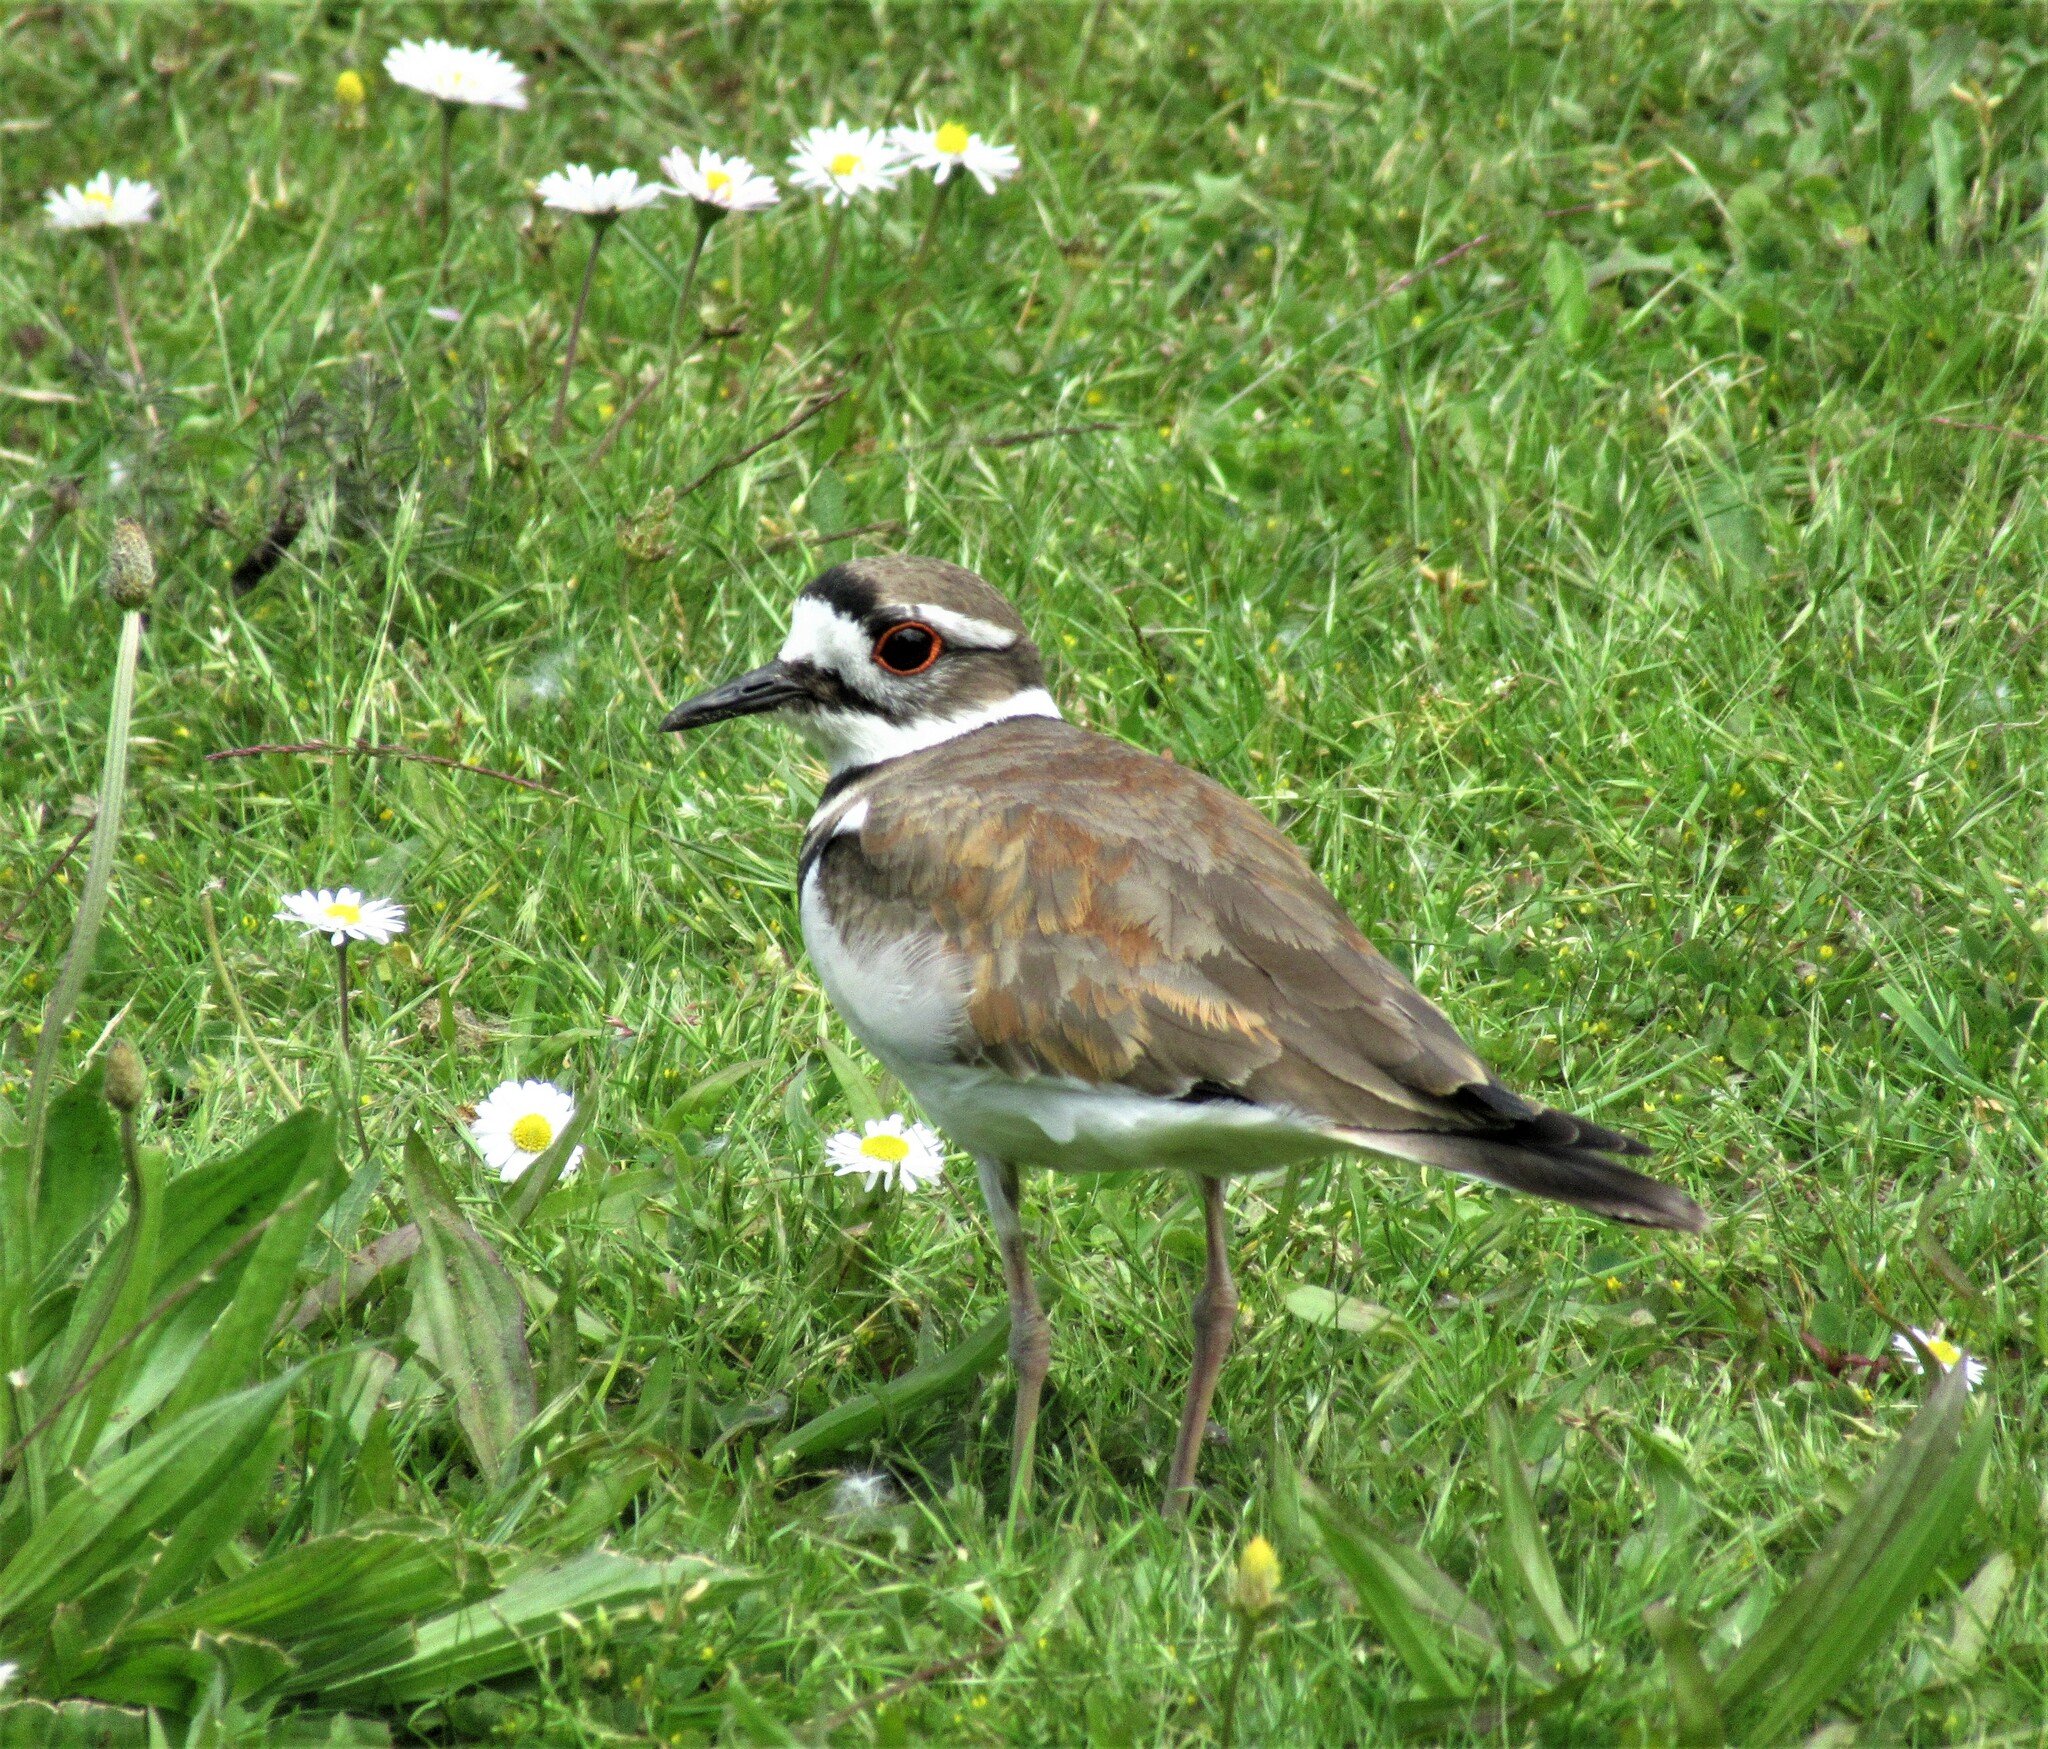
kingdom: Animalia
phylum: Chordata
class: Aves
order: Charadriiformes
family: Charadriidae
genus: Charadrius
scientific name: Charadrius vociferus
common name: Killdeer
